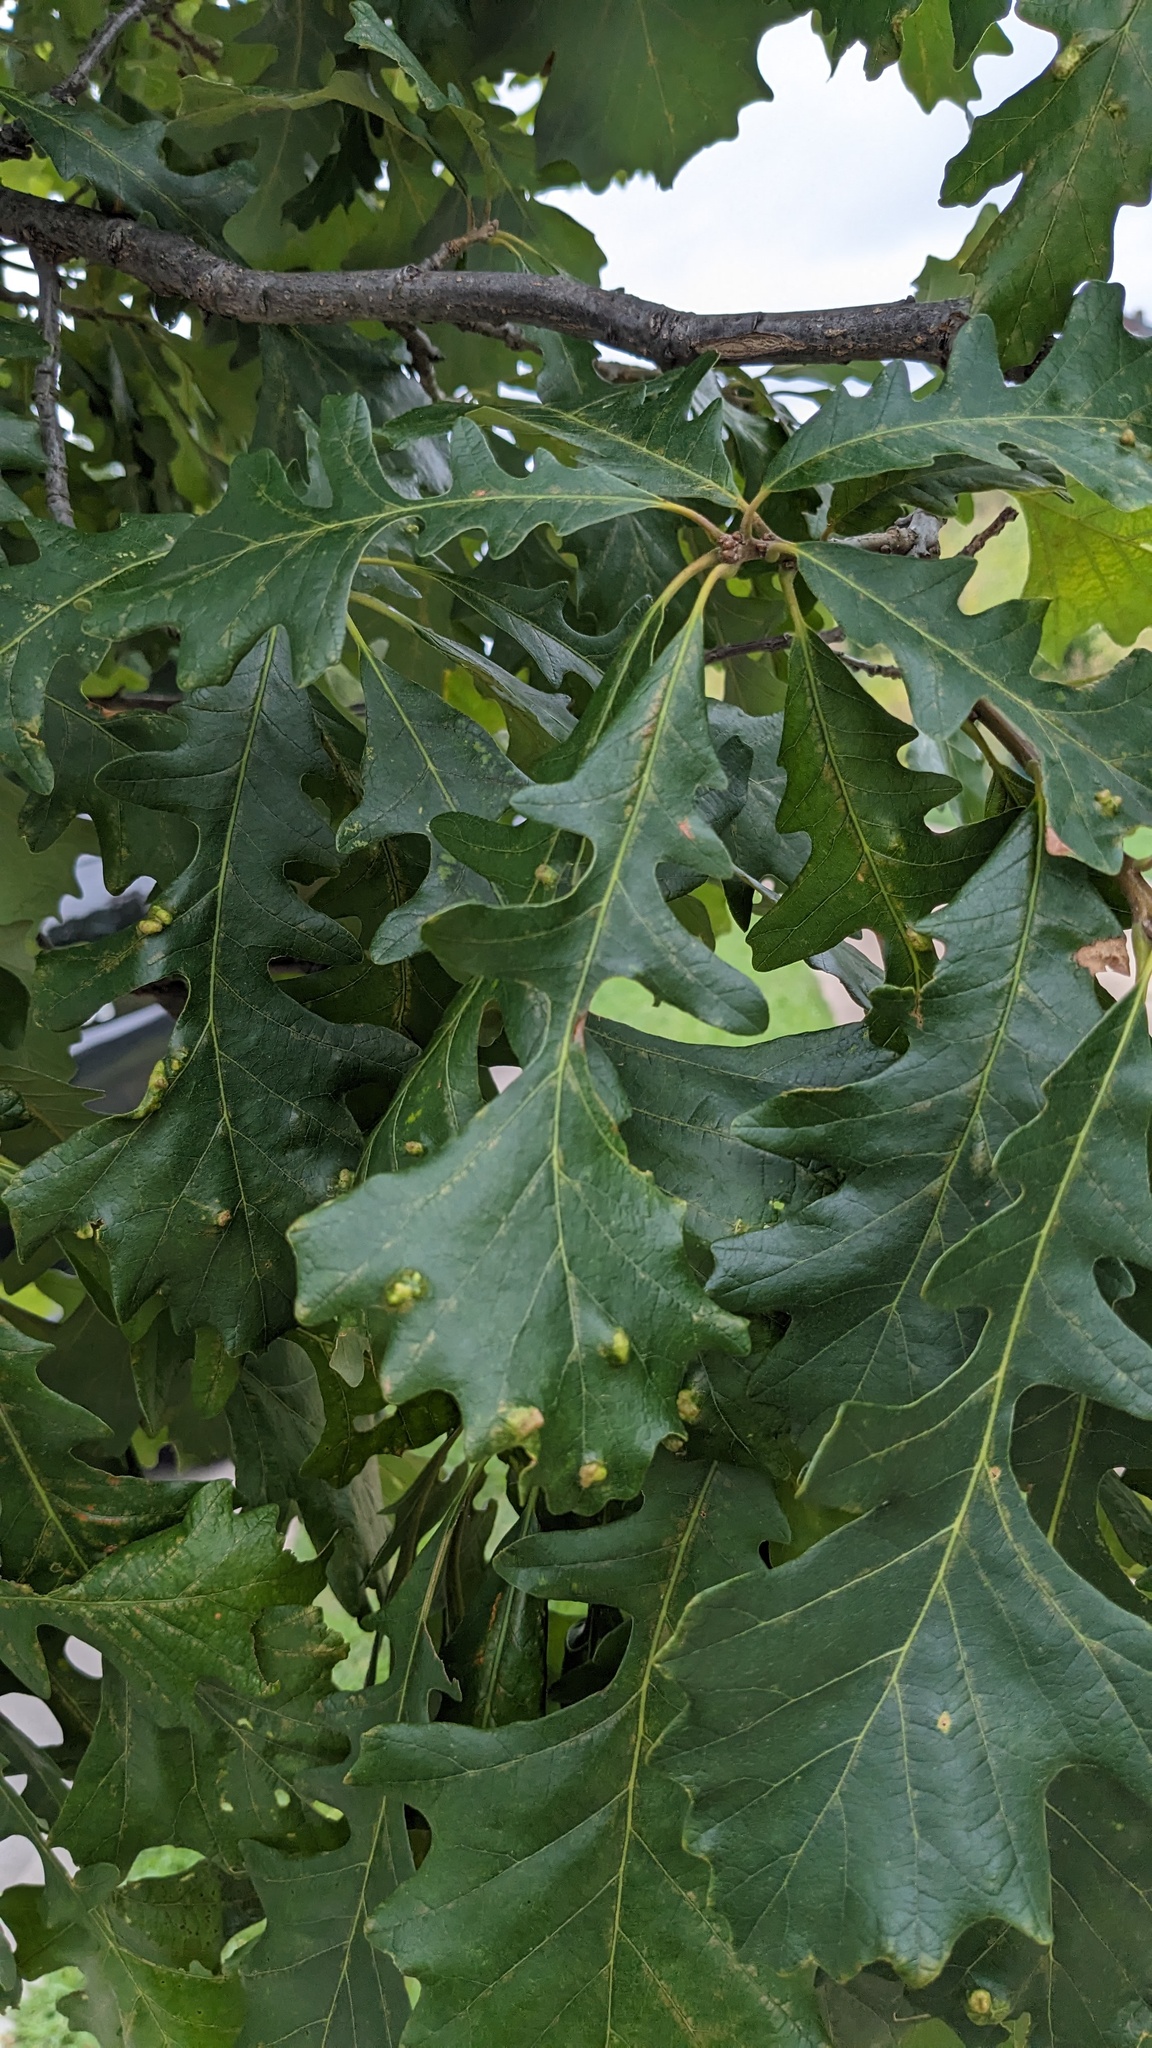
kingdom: Animalia
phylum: Arthropoda
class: Arachnida
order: Trombidiformes
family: Eriophyidae
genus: Aceria
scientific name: Aceria quercina
